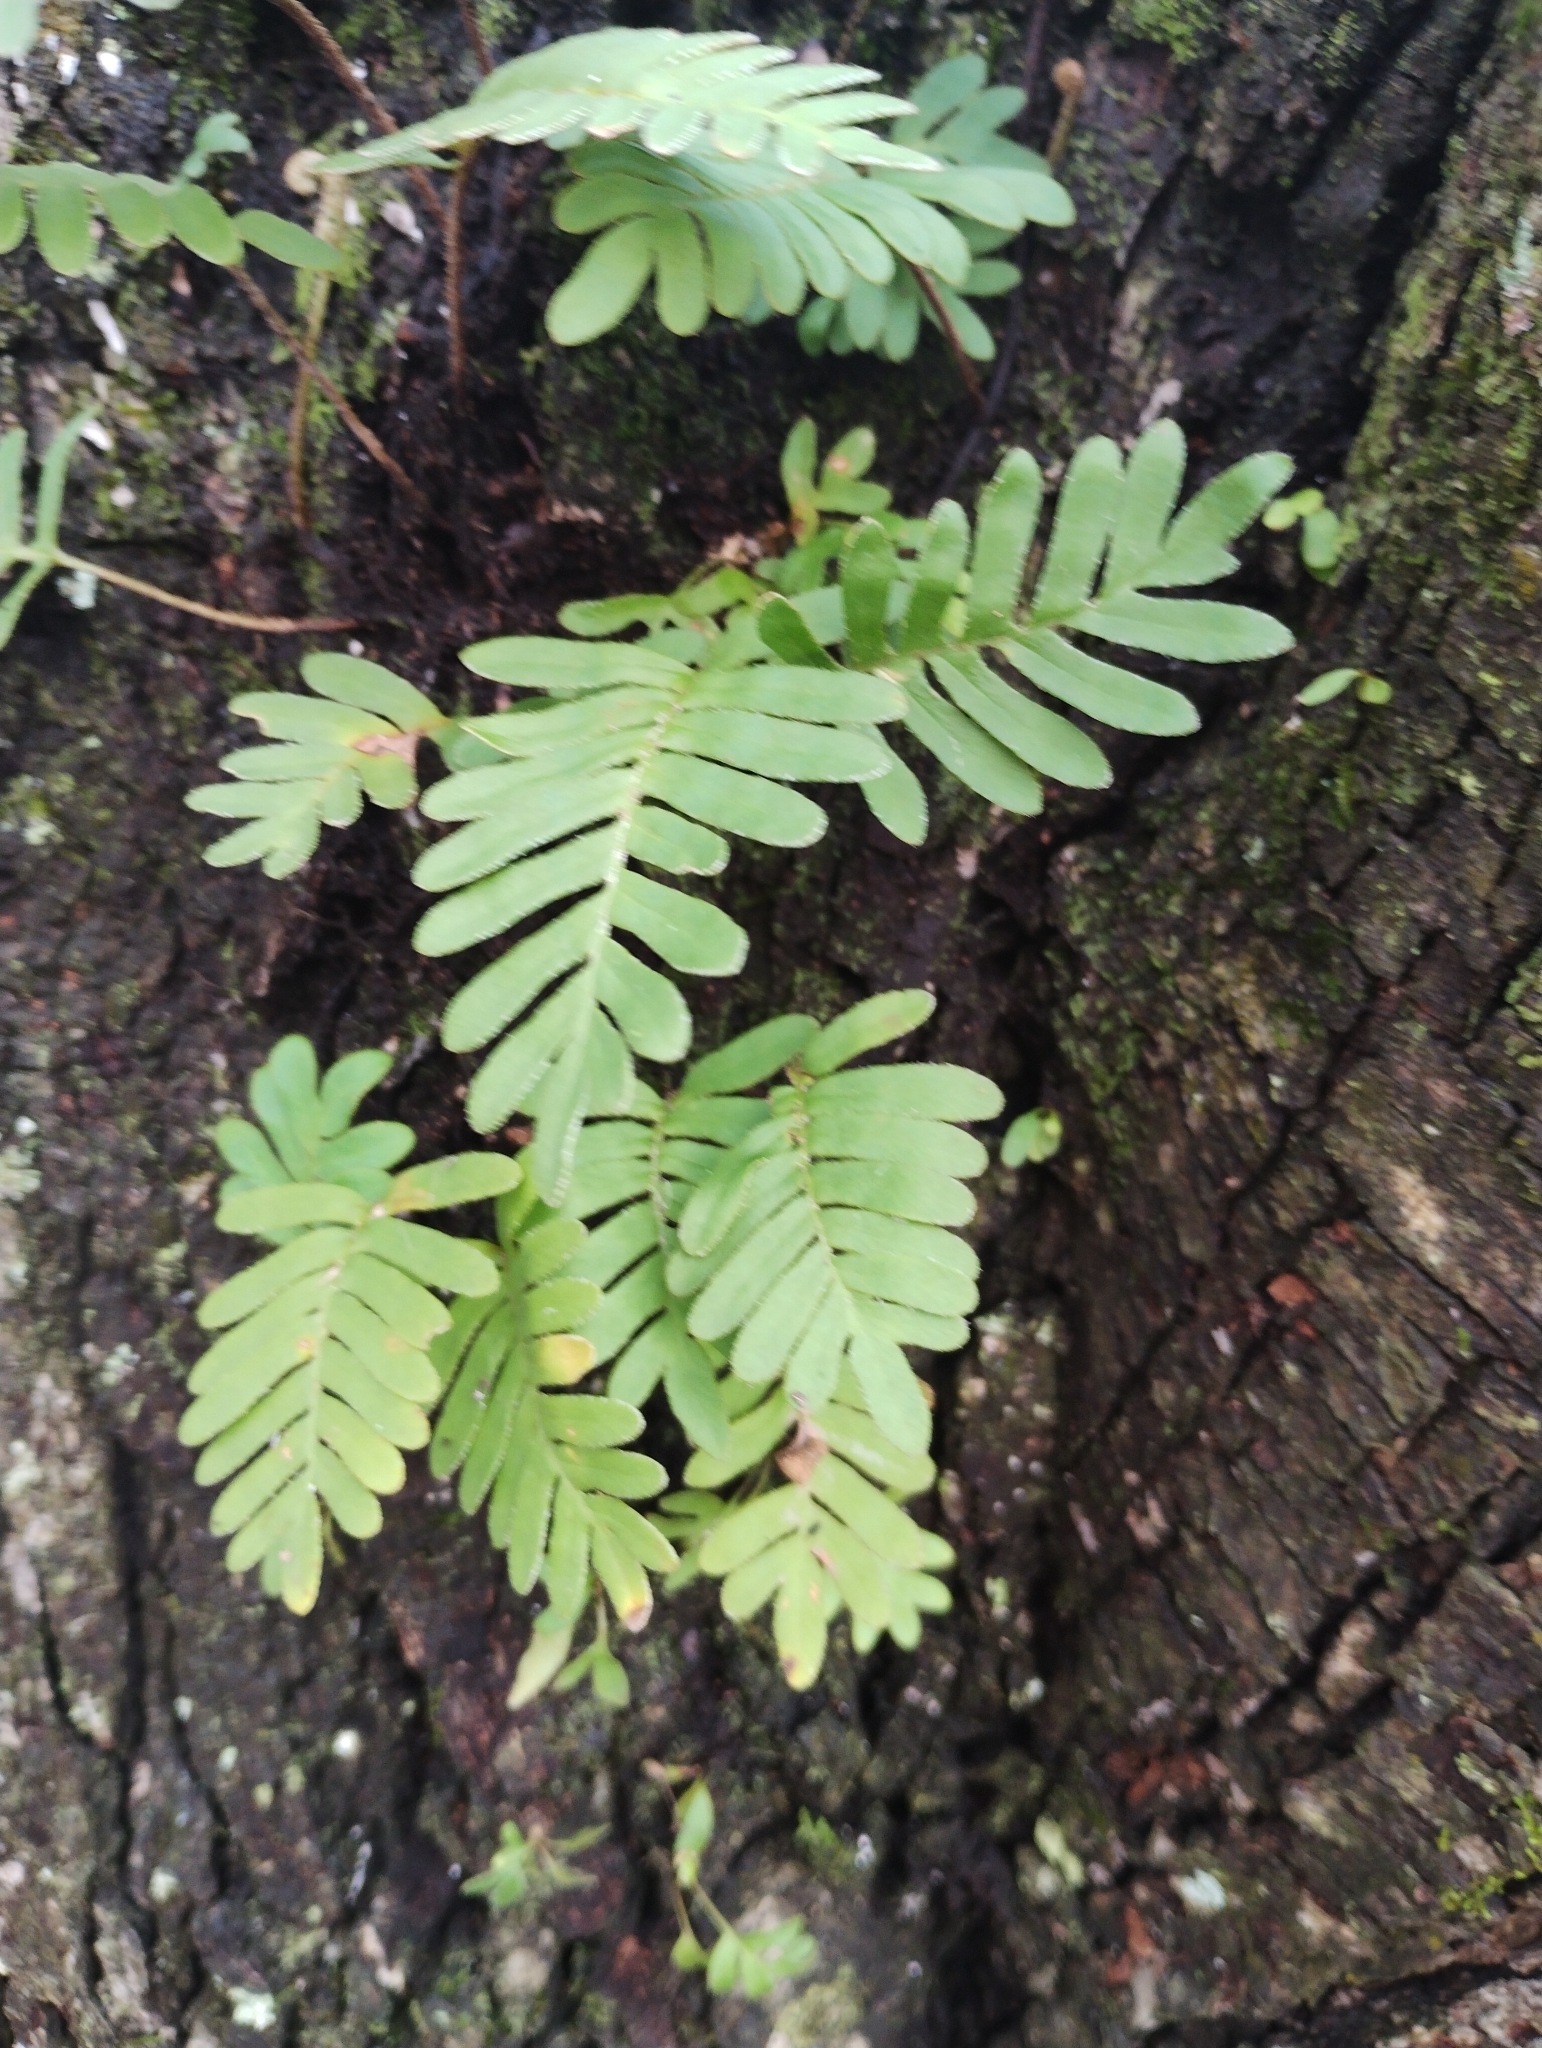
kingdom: Plantae
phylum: Tracheophyta
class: Polypodiopsida
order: Polypodiales
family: Polypodiaceae
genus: Pleopeltis
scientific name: Pleopeltis michauxiana
